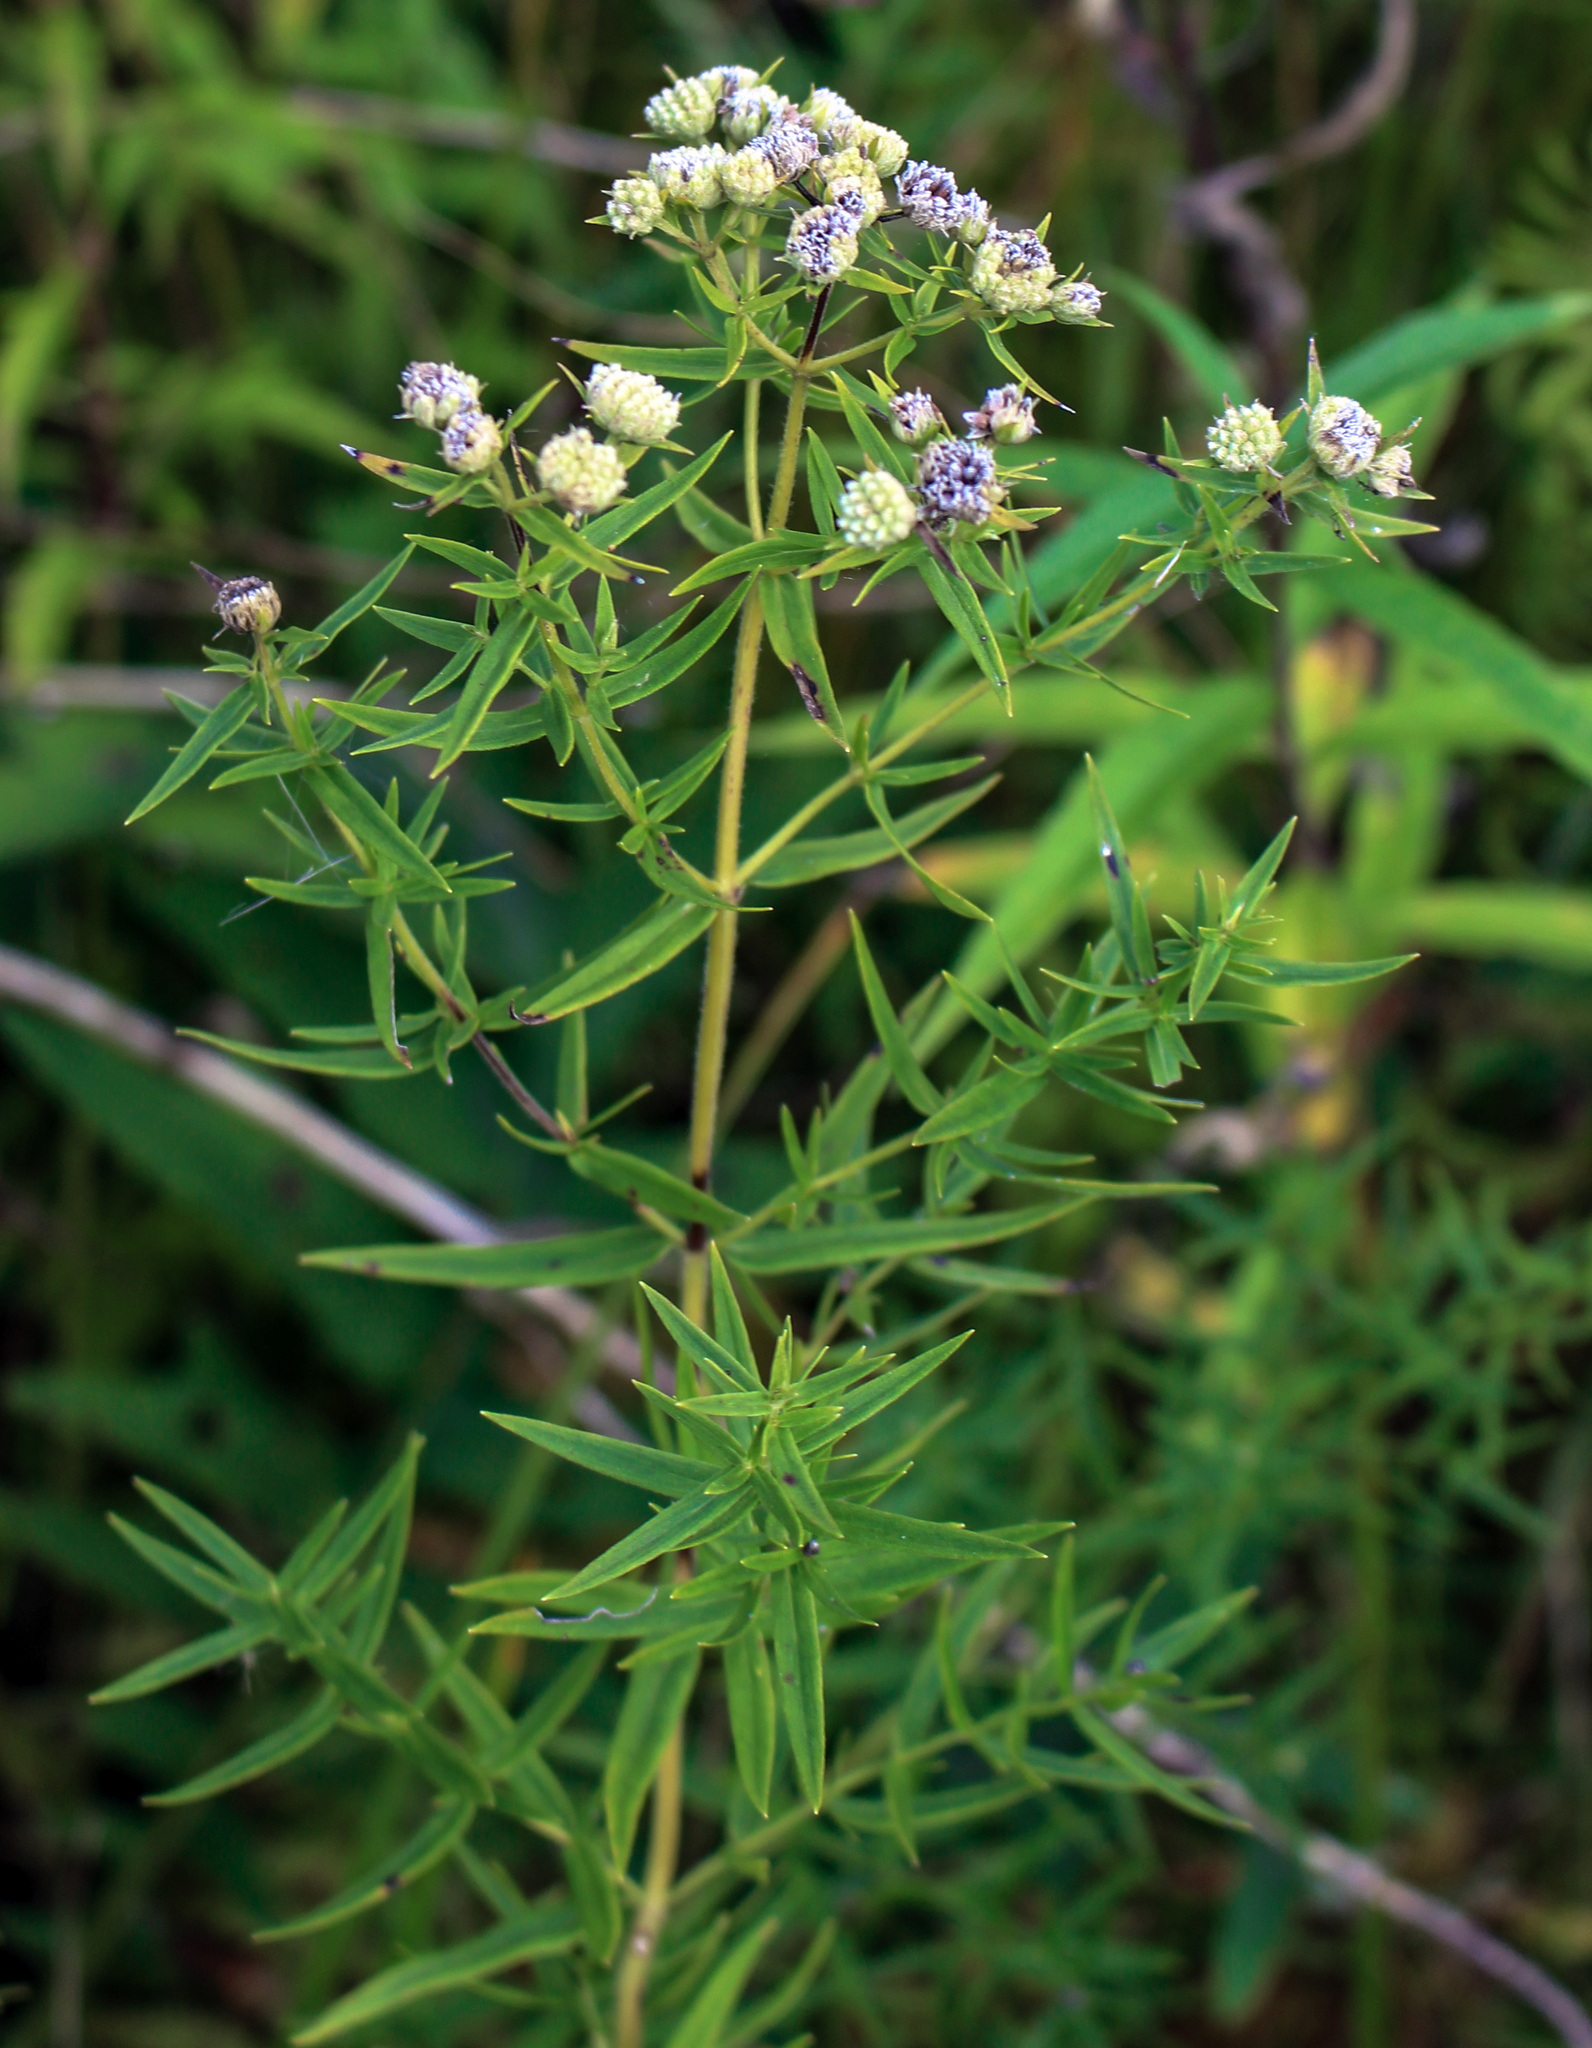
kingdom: Plantae
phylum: Tracheophyta
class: Magnoliopsida
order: Lamiales
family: Lamiaceae
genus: Pycnanthemum
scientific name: Pycnanthemum virginianum
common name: Virginia mountain-mint
